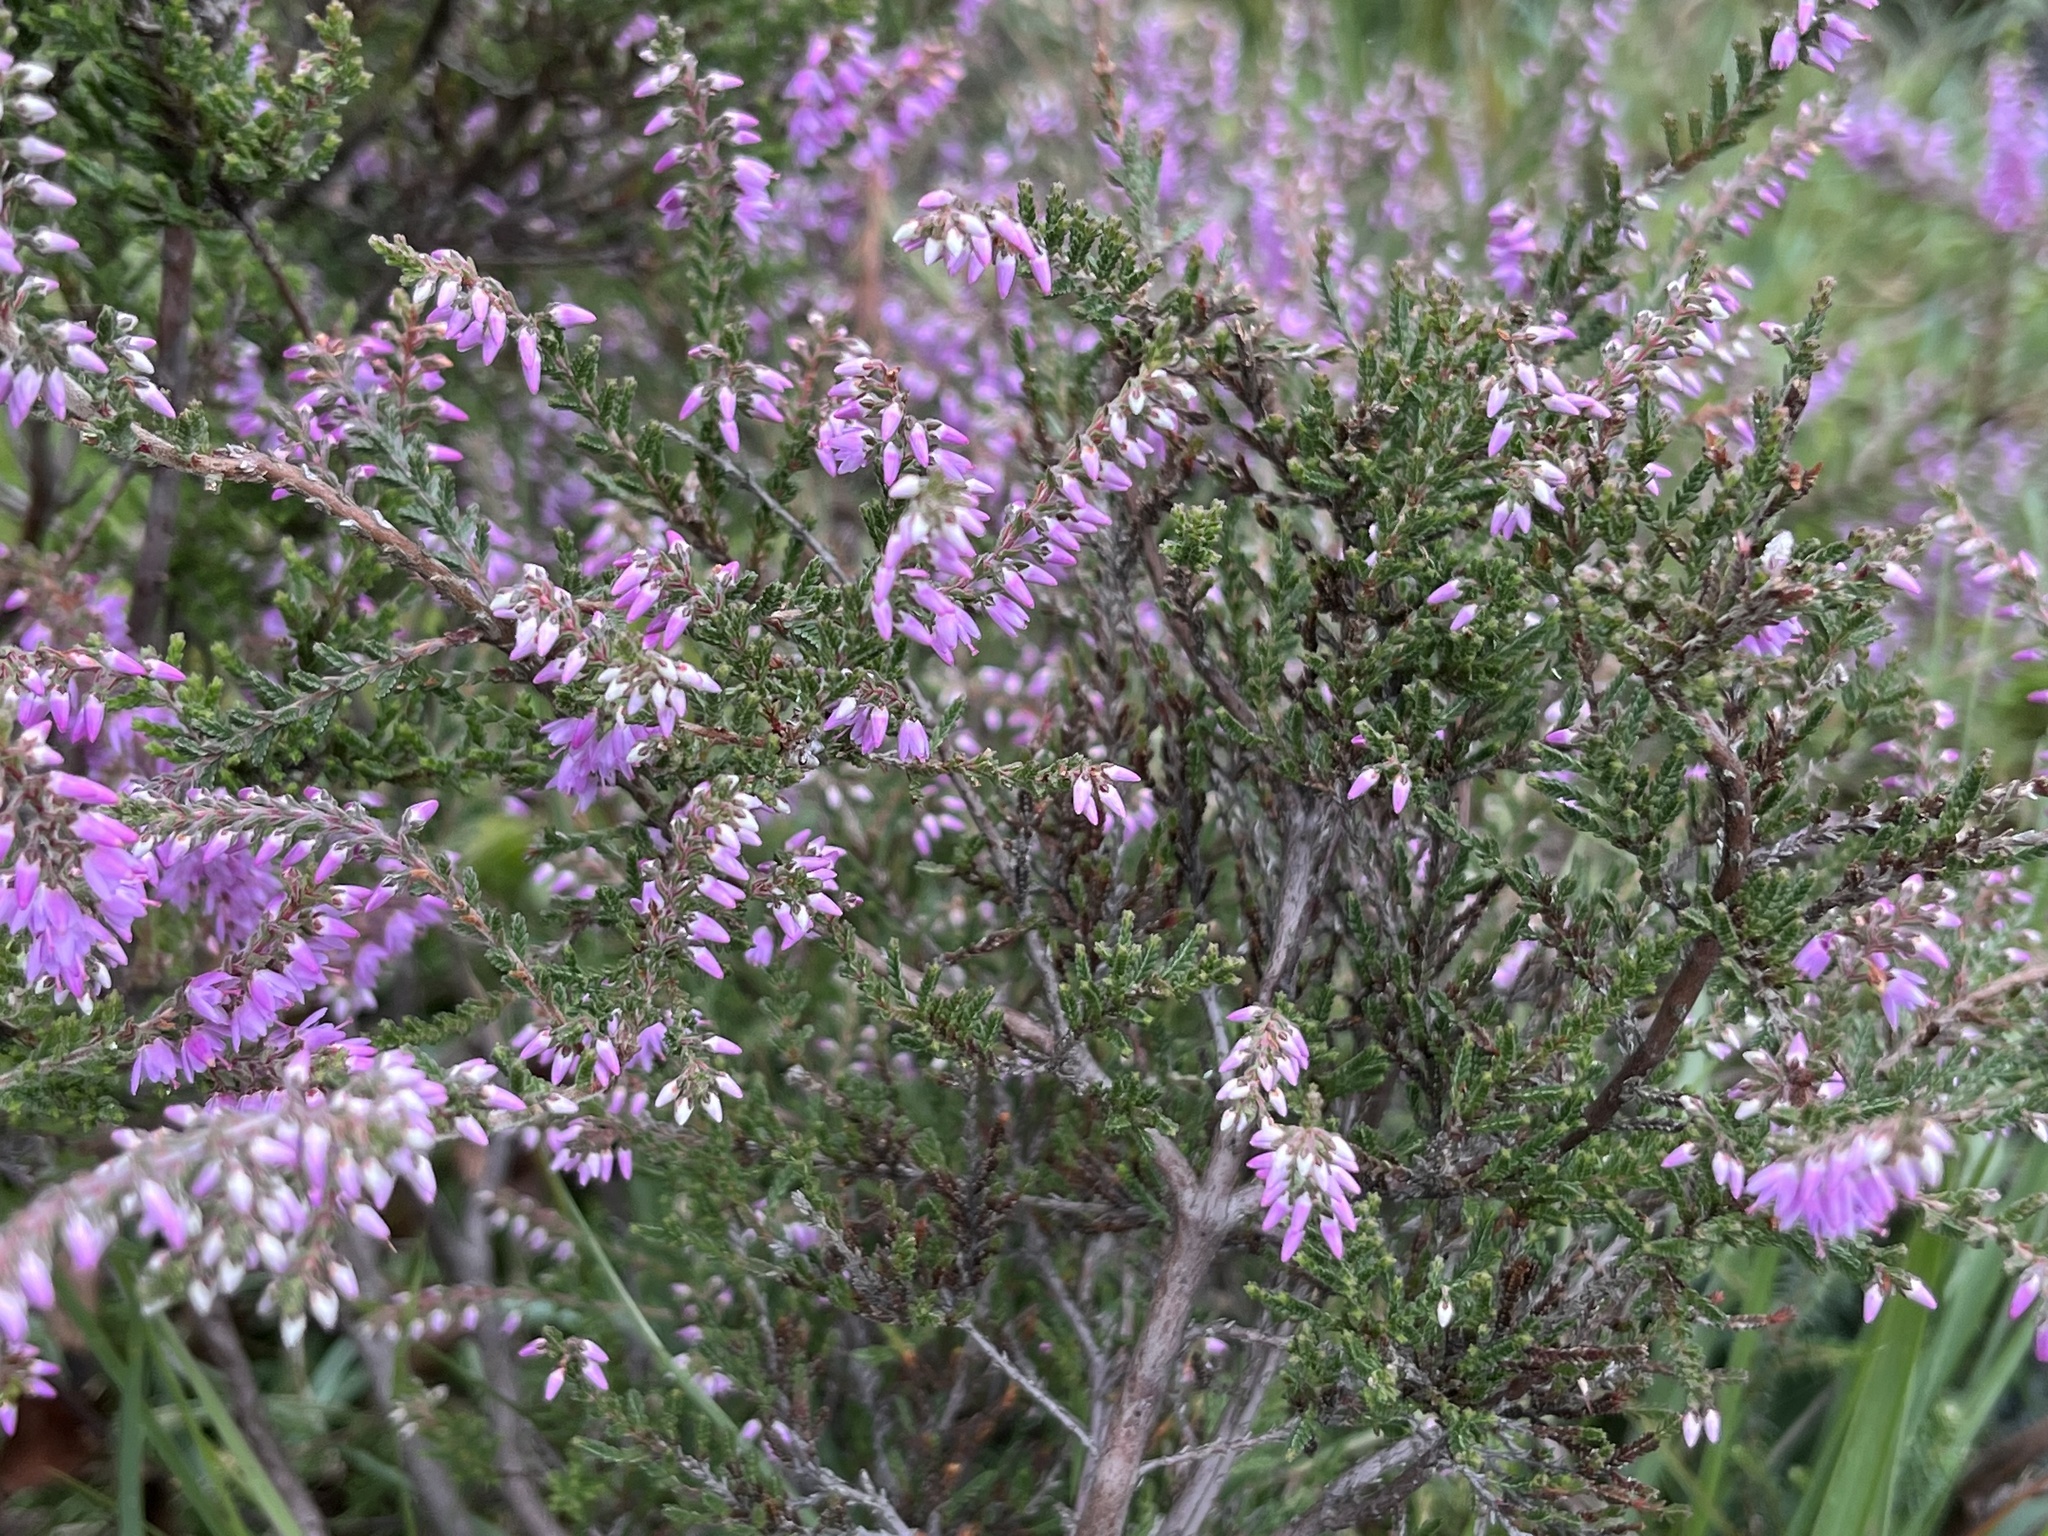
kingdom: Plantae
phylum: Tracheophyta
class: Magnoliopsida
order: Ericales
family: Ericaceae
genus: Calluna
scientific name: Calluna vulgaris
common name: Heather
